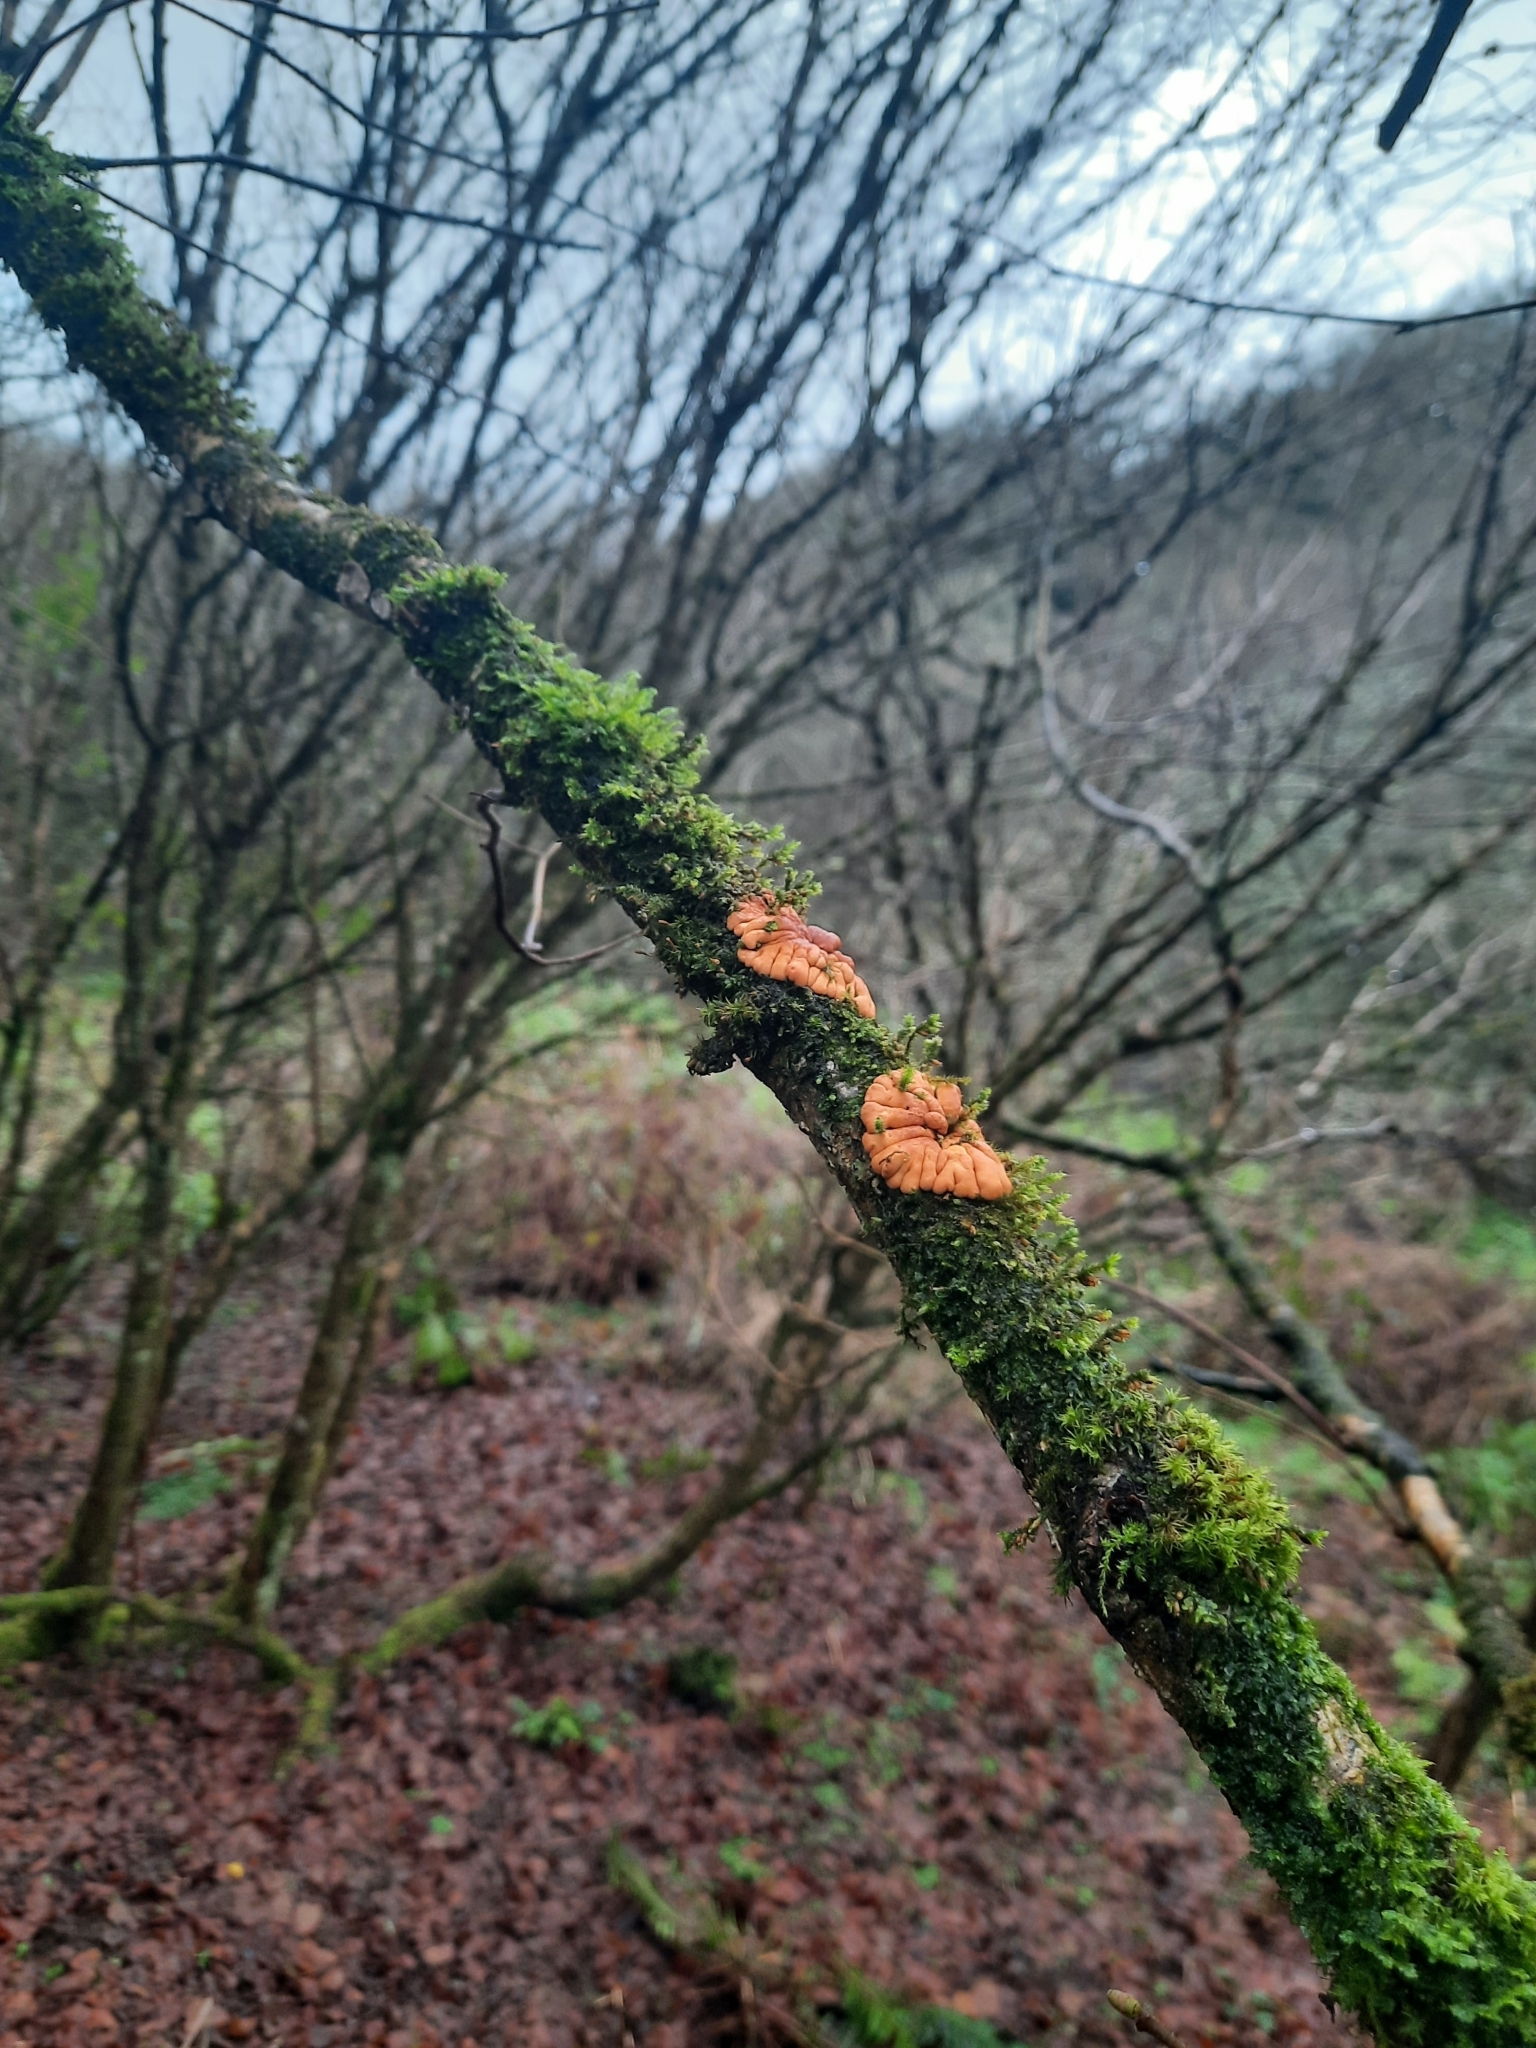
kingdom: Fungi
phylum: Ascomycota
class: Sordariomycetes
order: Hypocreales
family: Hypocreaceae
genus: Hypocreopsis
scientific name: Hypocreopsis rhododendri
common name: Hazel gloves
